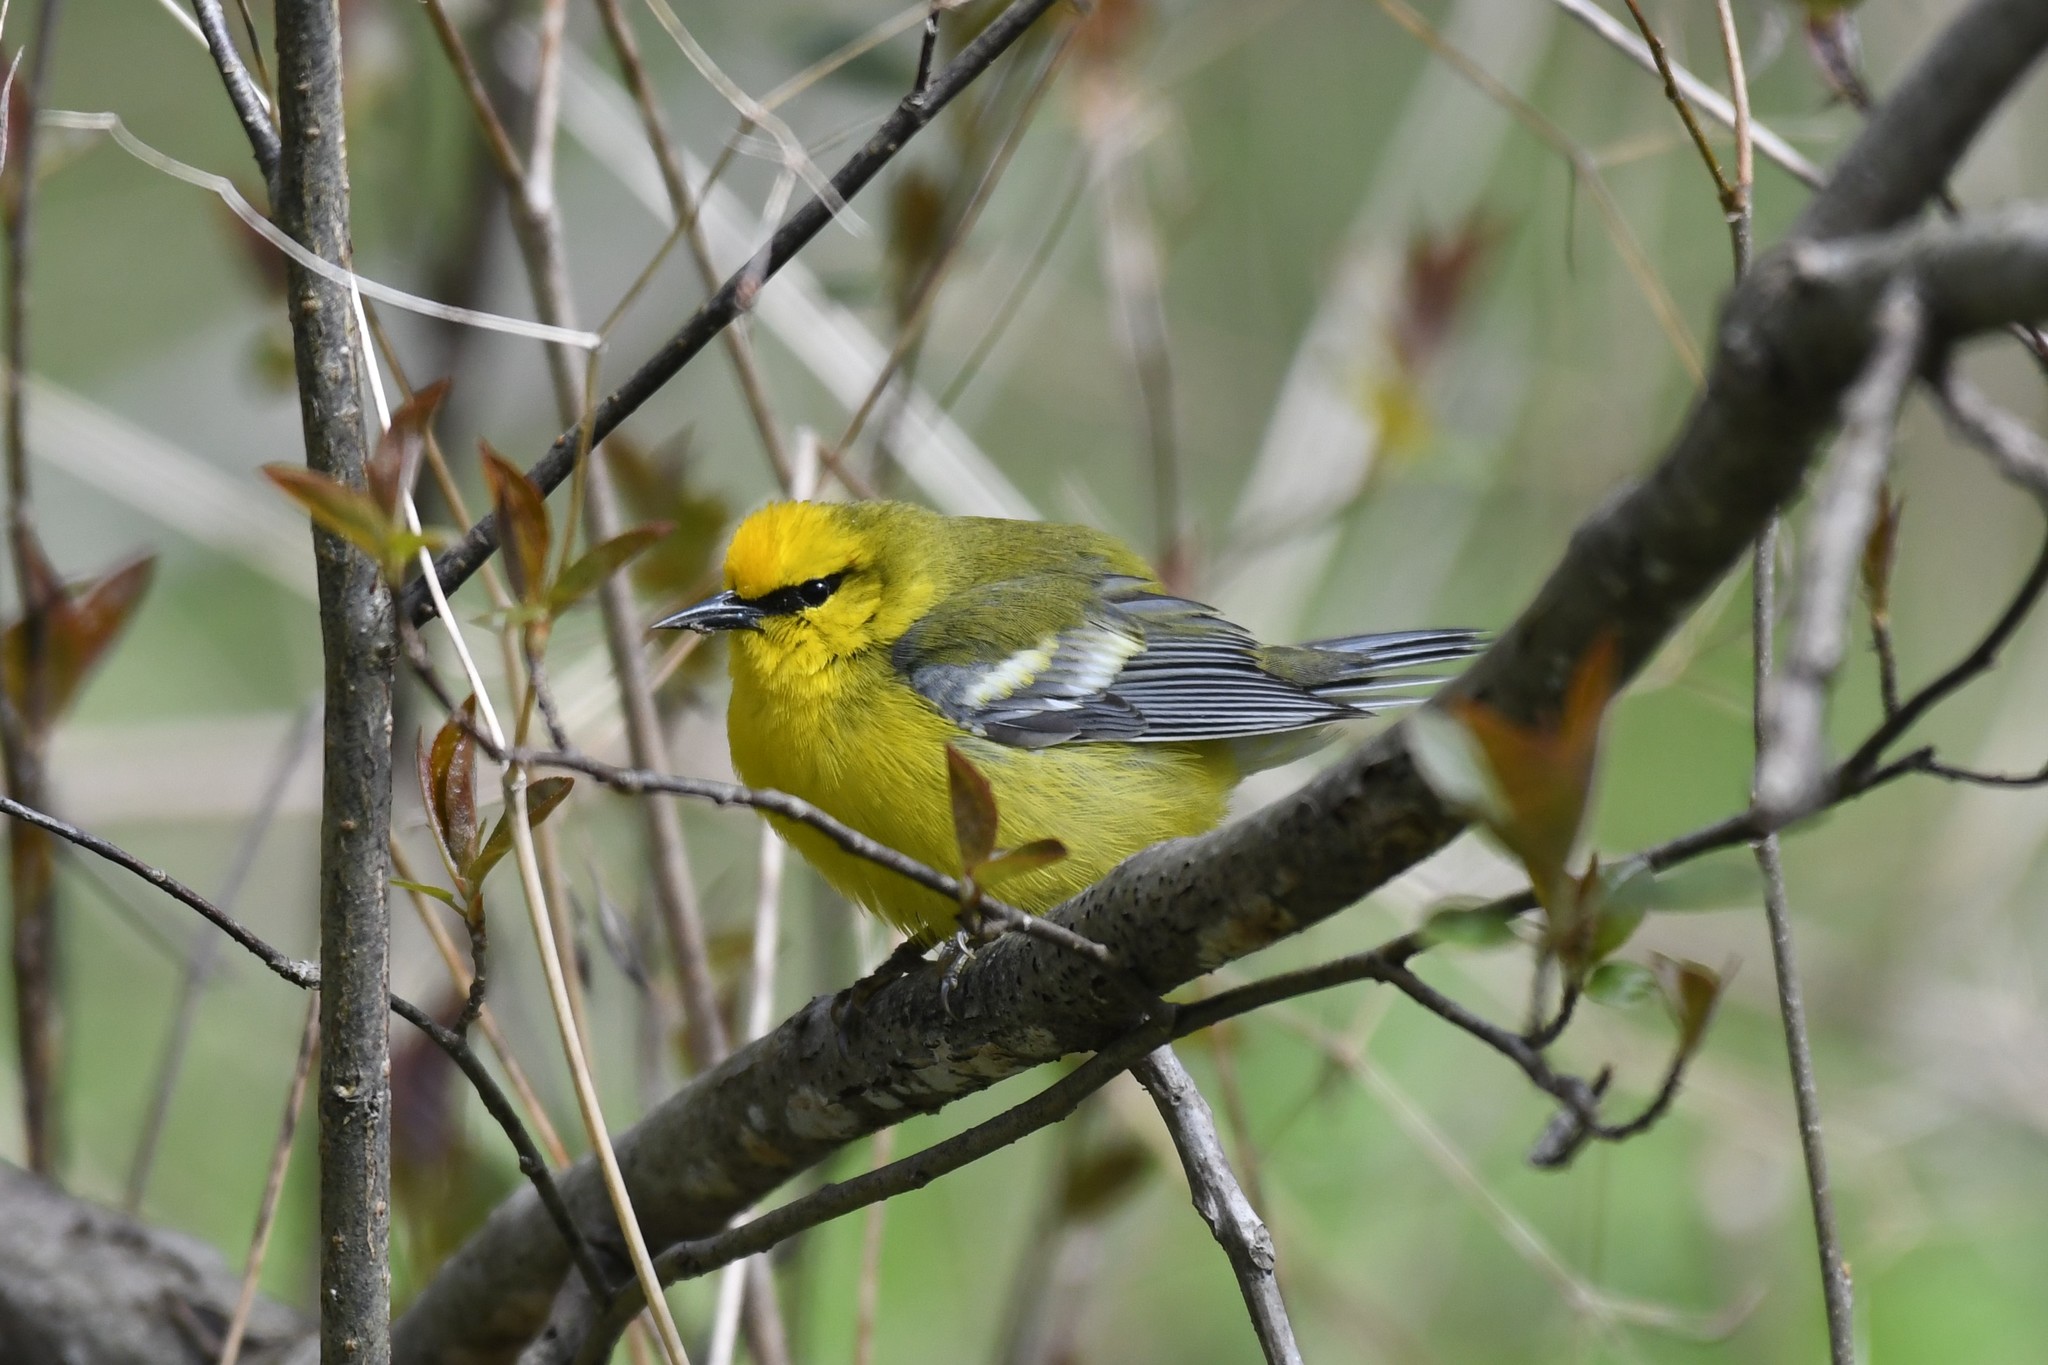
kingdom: Animalia
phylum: Chordata
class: Aves
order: Passeriformes
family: Parulidae
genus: Vermivora
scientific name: Vermivora cyanoptera
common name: Blue-winged warbler
